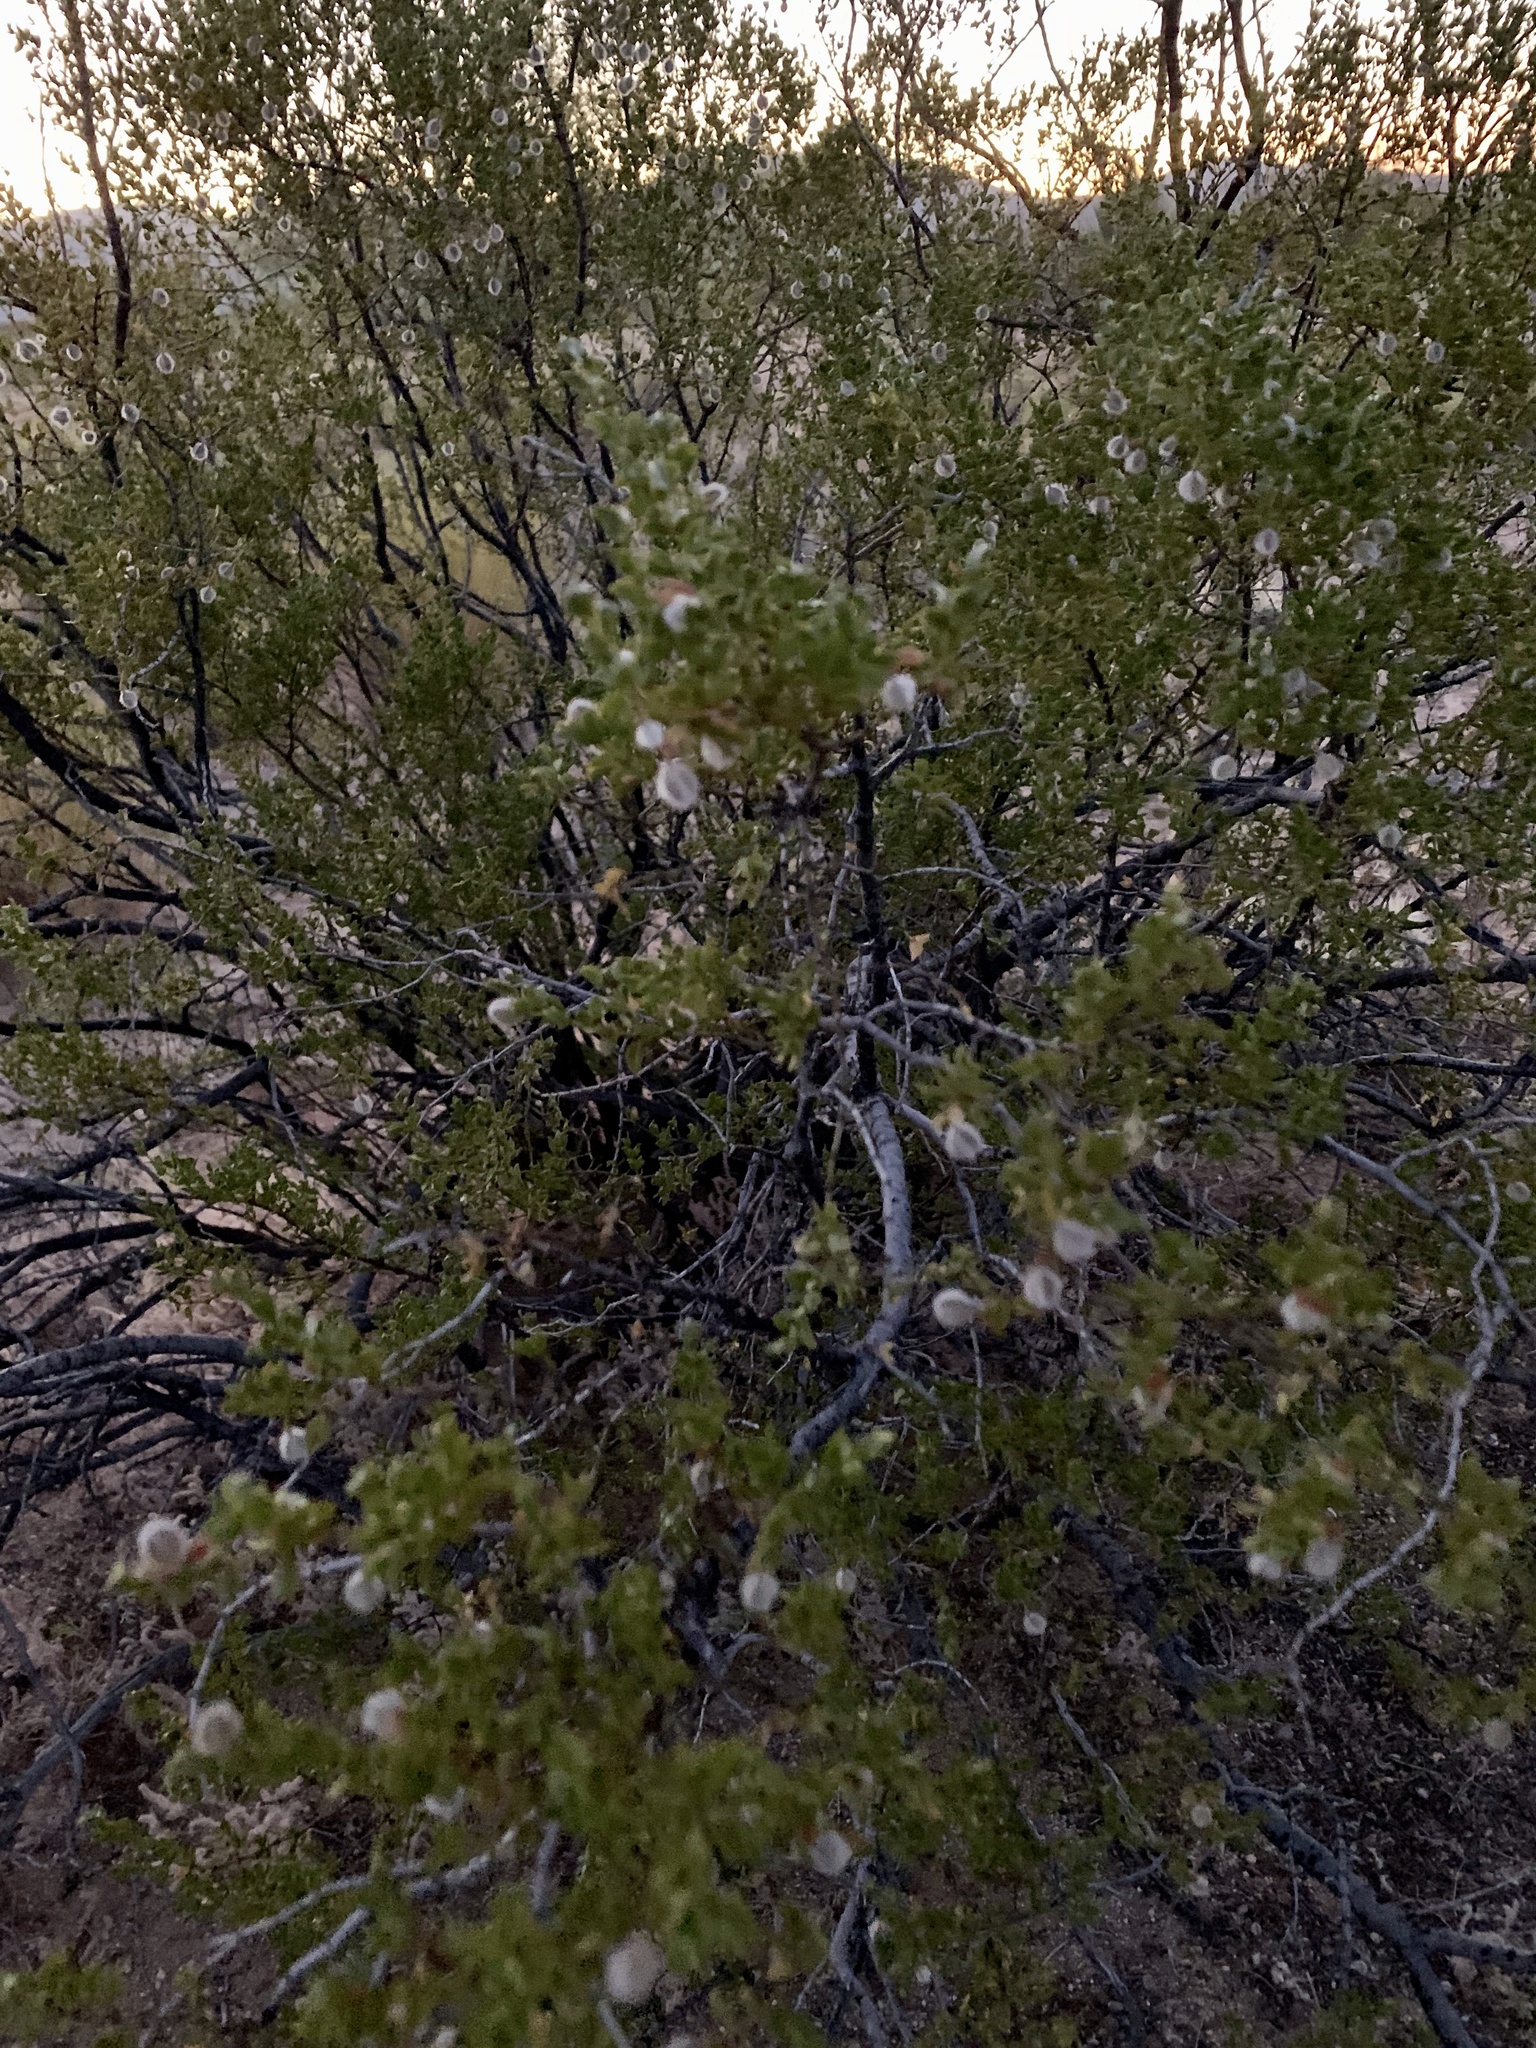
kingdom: Plantae
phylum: Tracheophyta
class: Magnoliopsida
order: Zygophyllales
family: Zygophyllaceae
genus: Larrea
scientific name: Larrea tridentata
